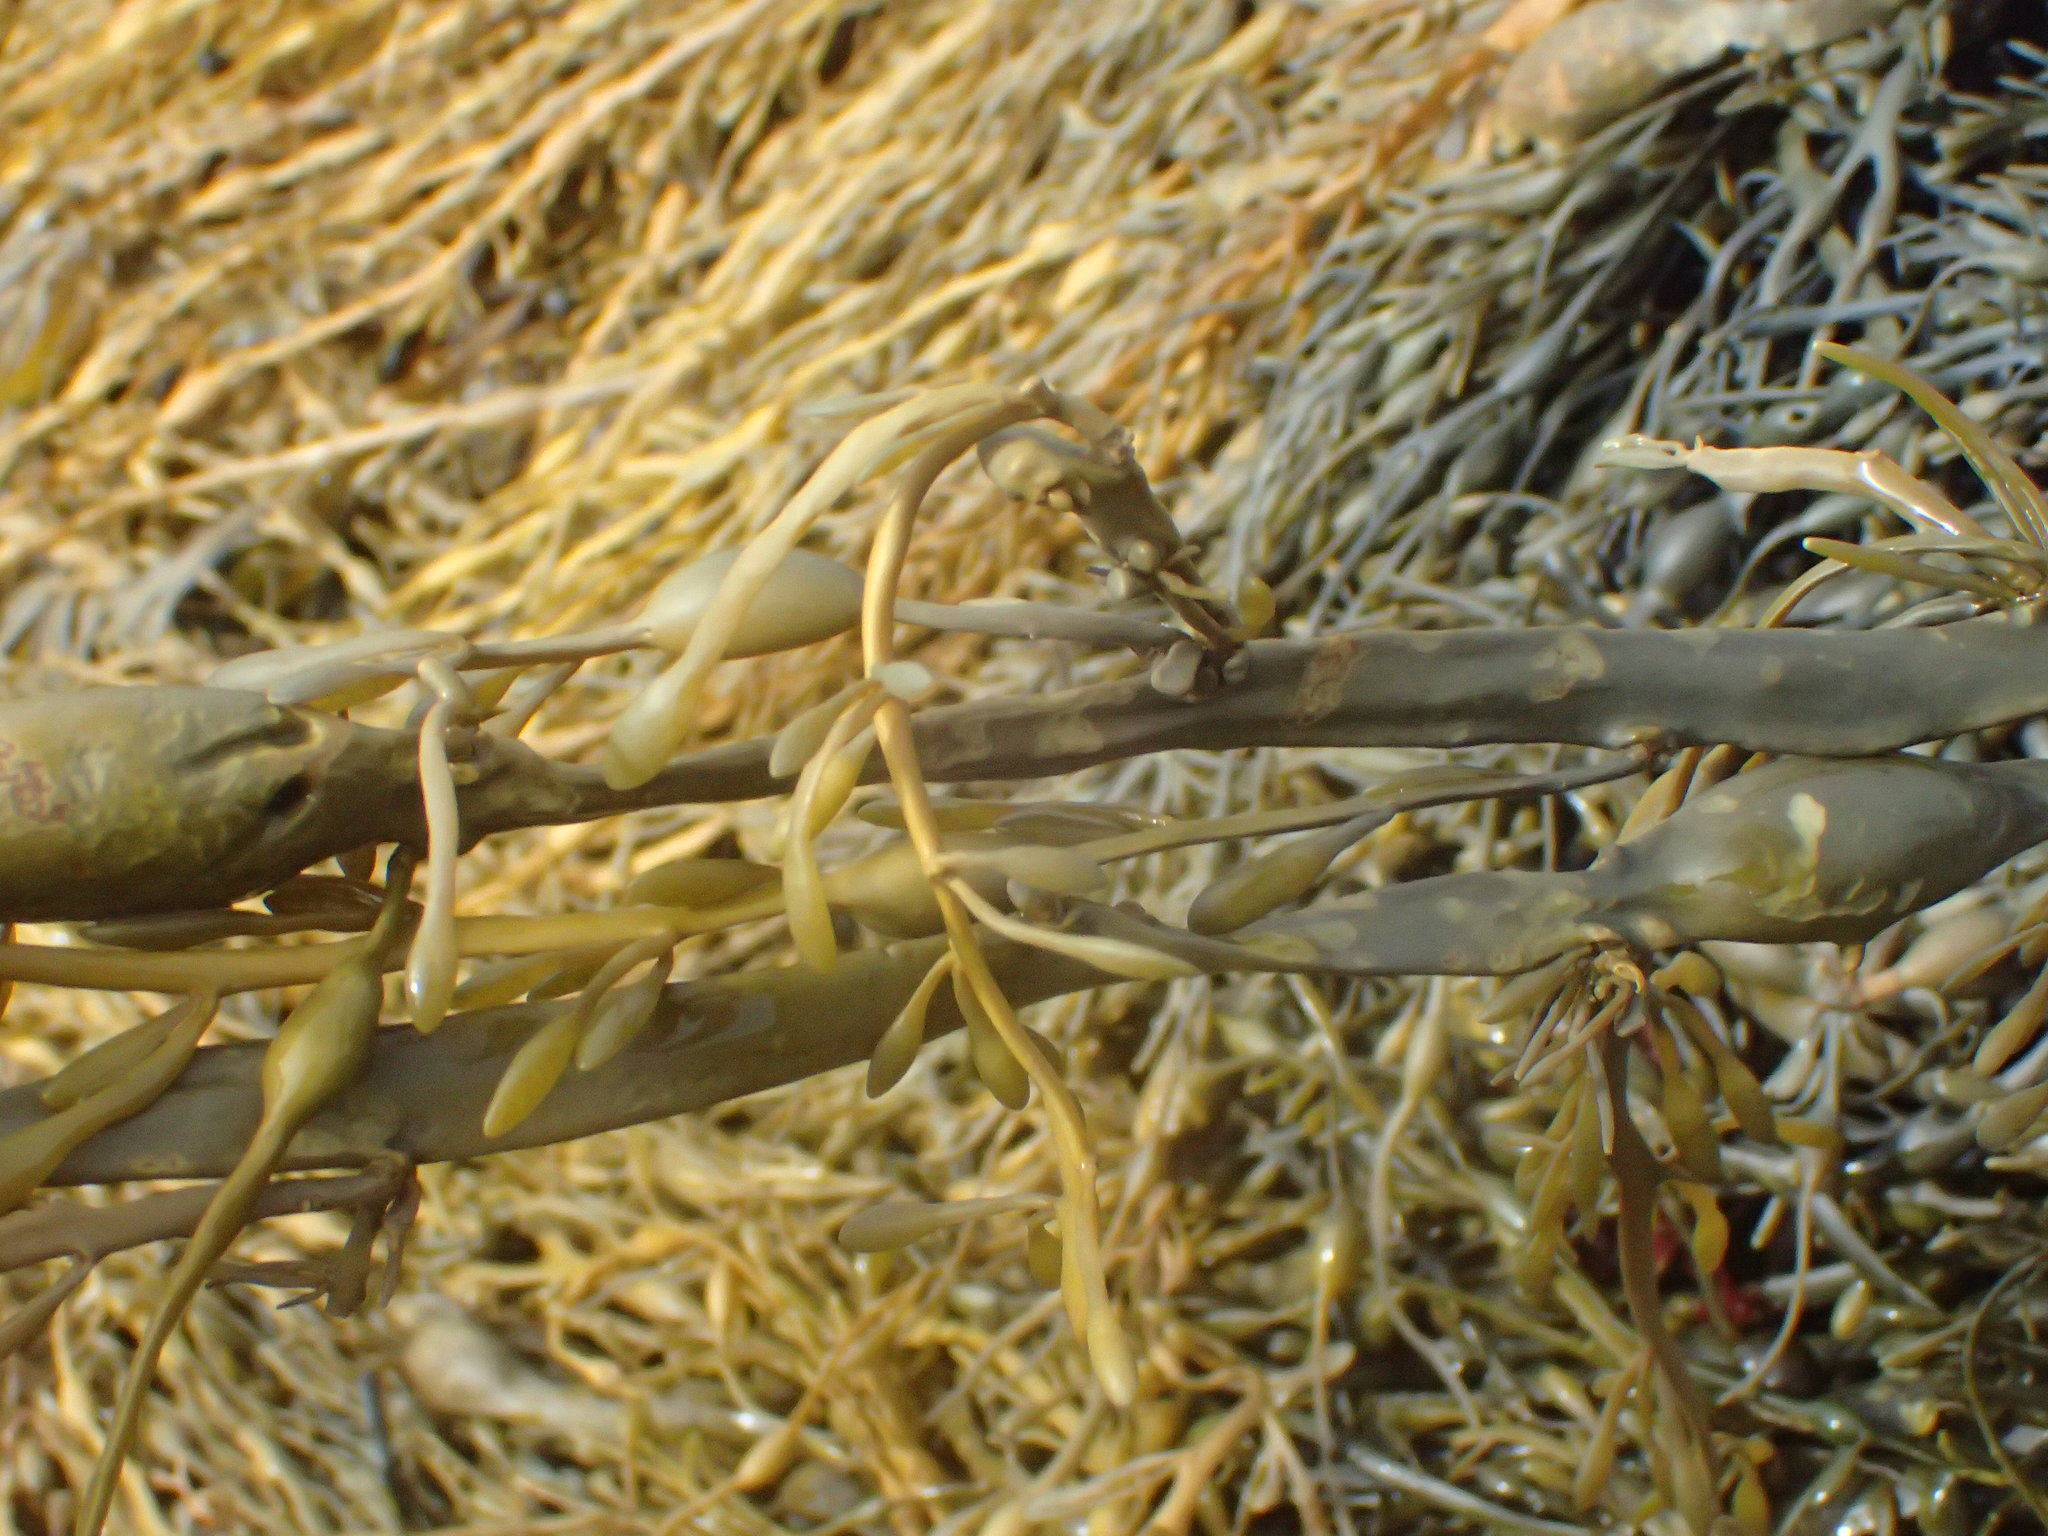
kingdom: Chromista
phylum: Ochrophyta
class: Phaeophyceae
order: Fucales
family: Fucaceae
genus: Ascophyllum
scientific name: Ascophyllum nodosum
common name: Knotted wrack
